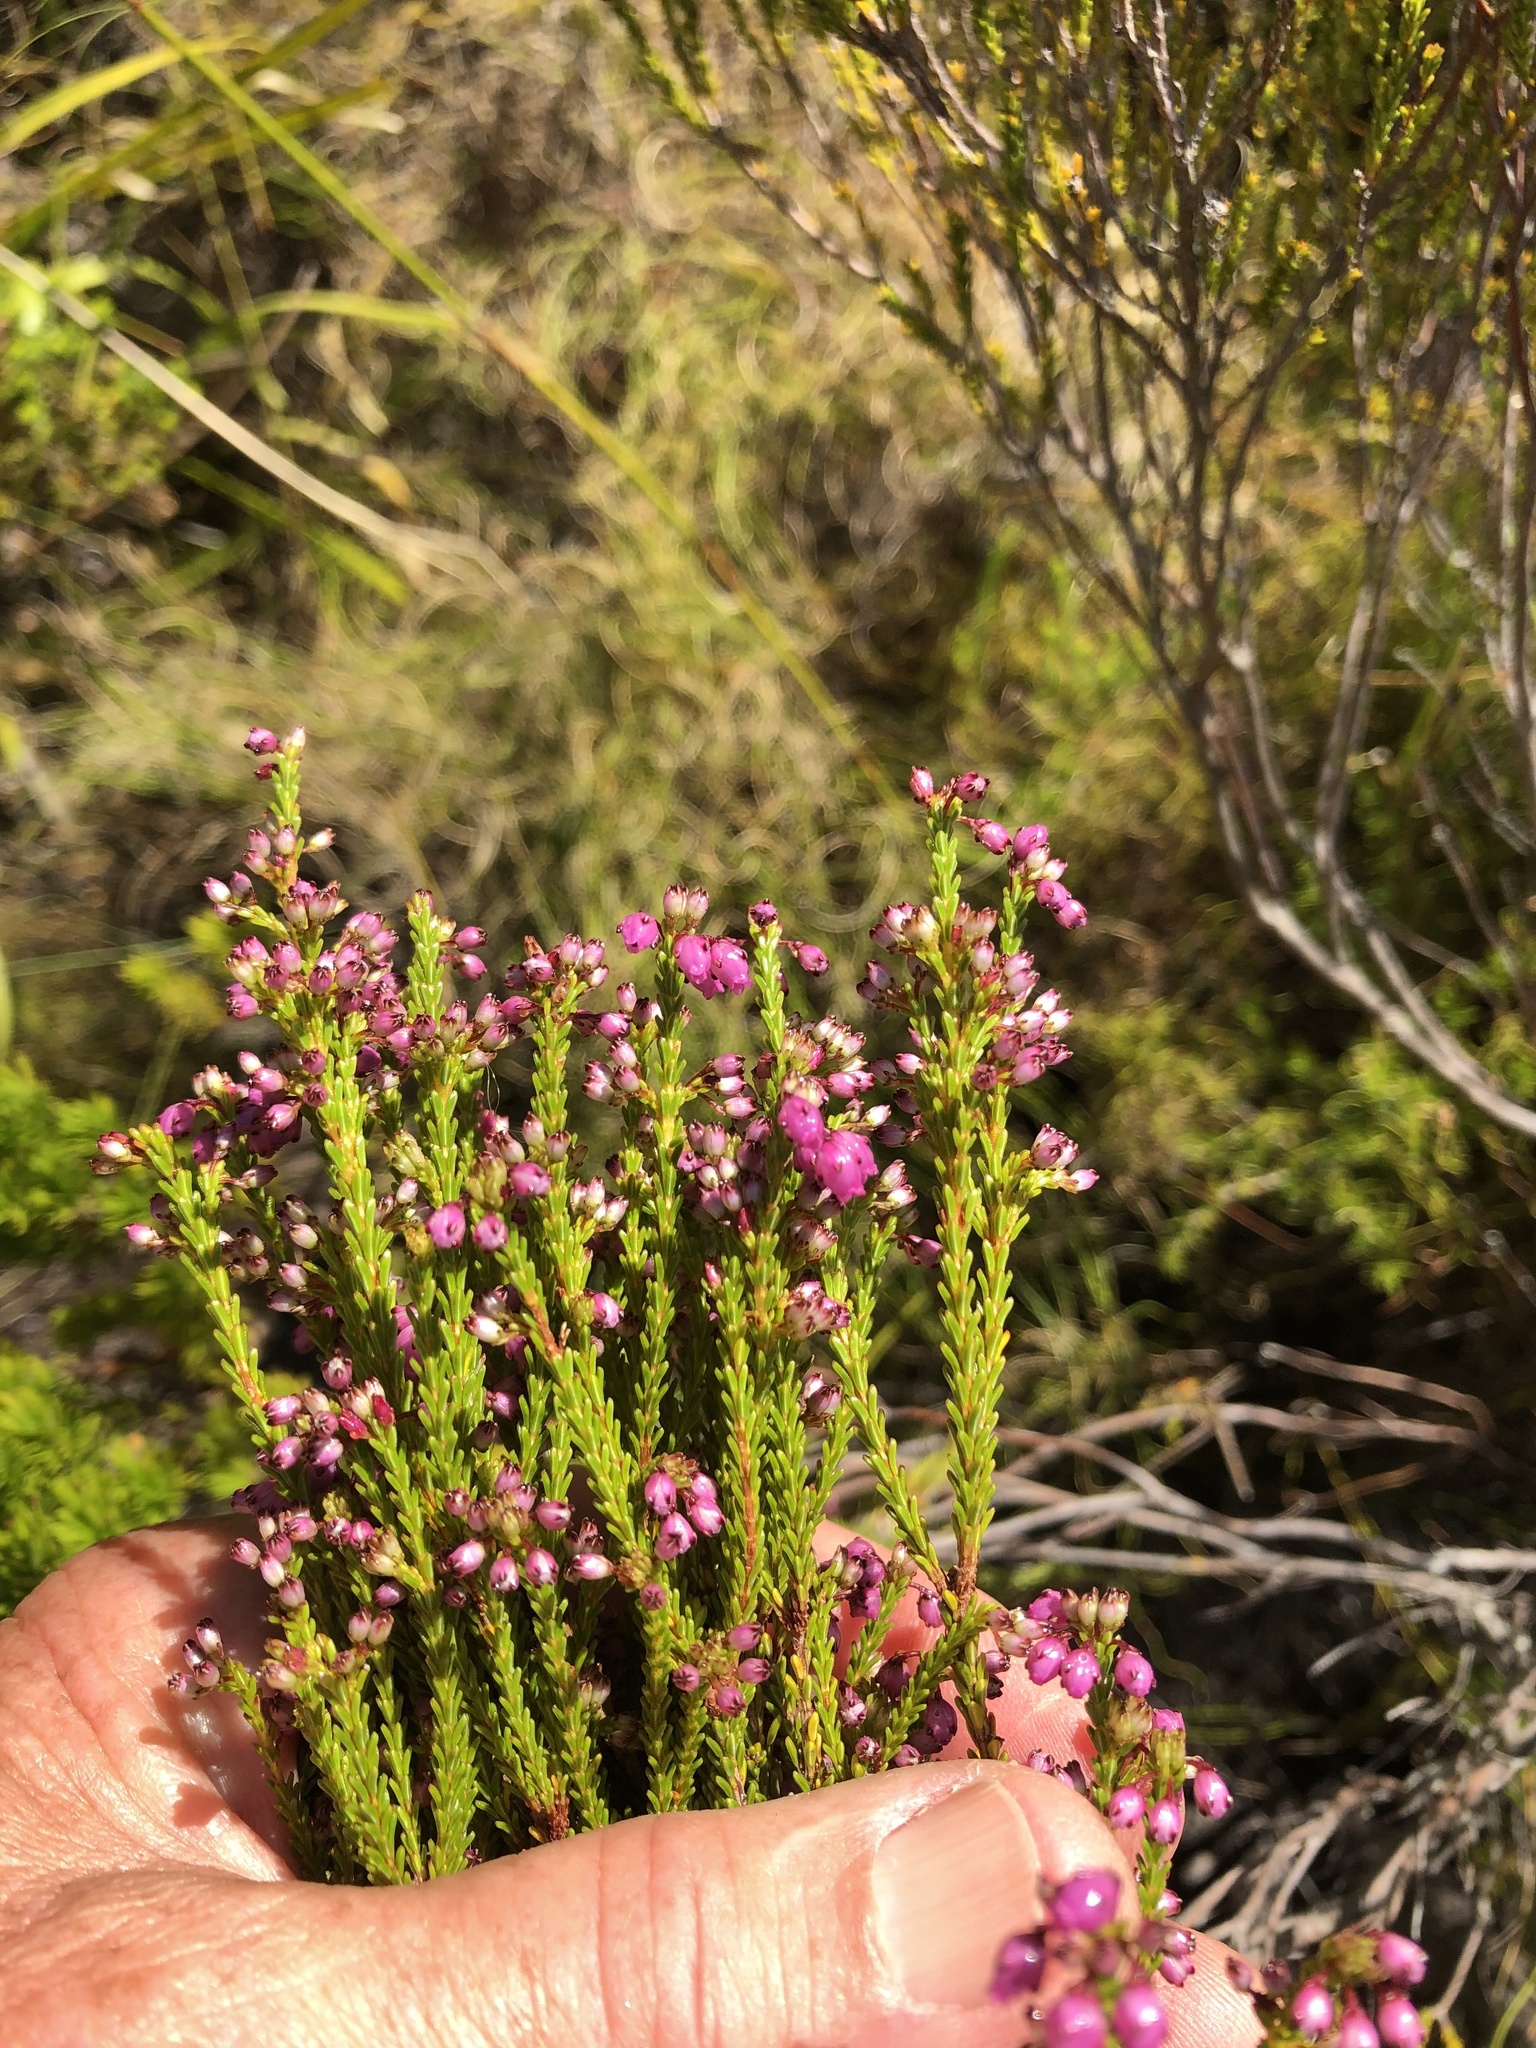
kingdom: Plantae
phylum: Tracheophyta
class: Magnoliopsida
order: Ericales
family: Ericaceae
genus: Erica
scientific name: Erica ferrea
